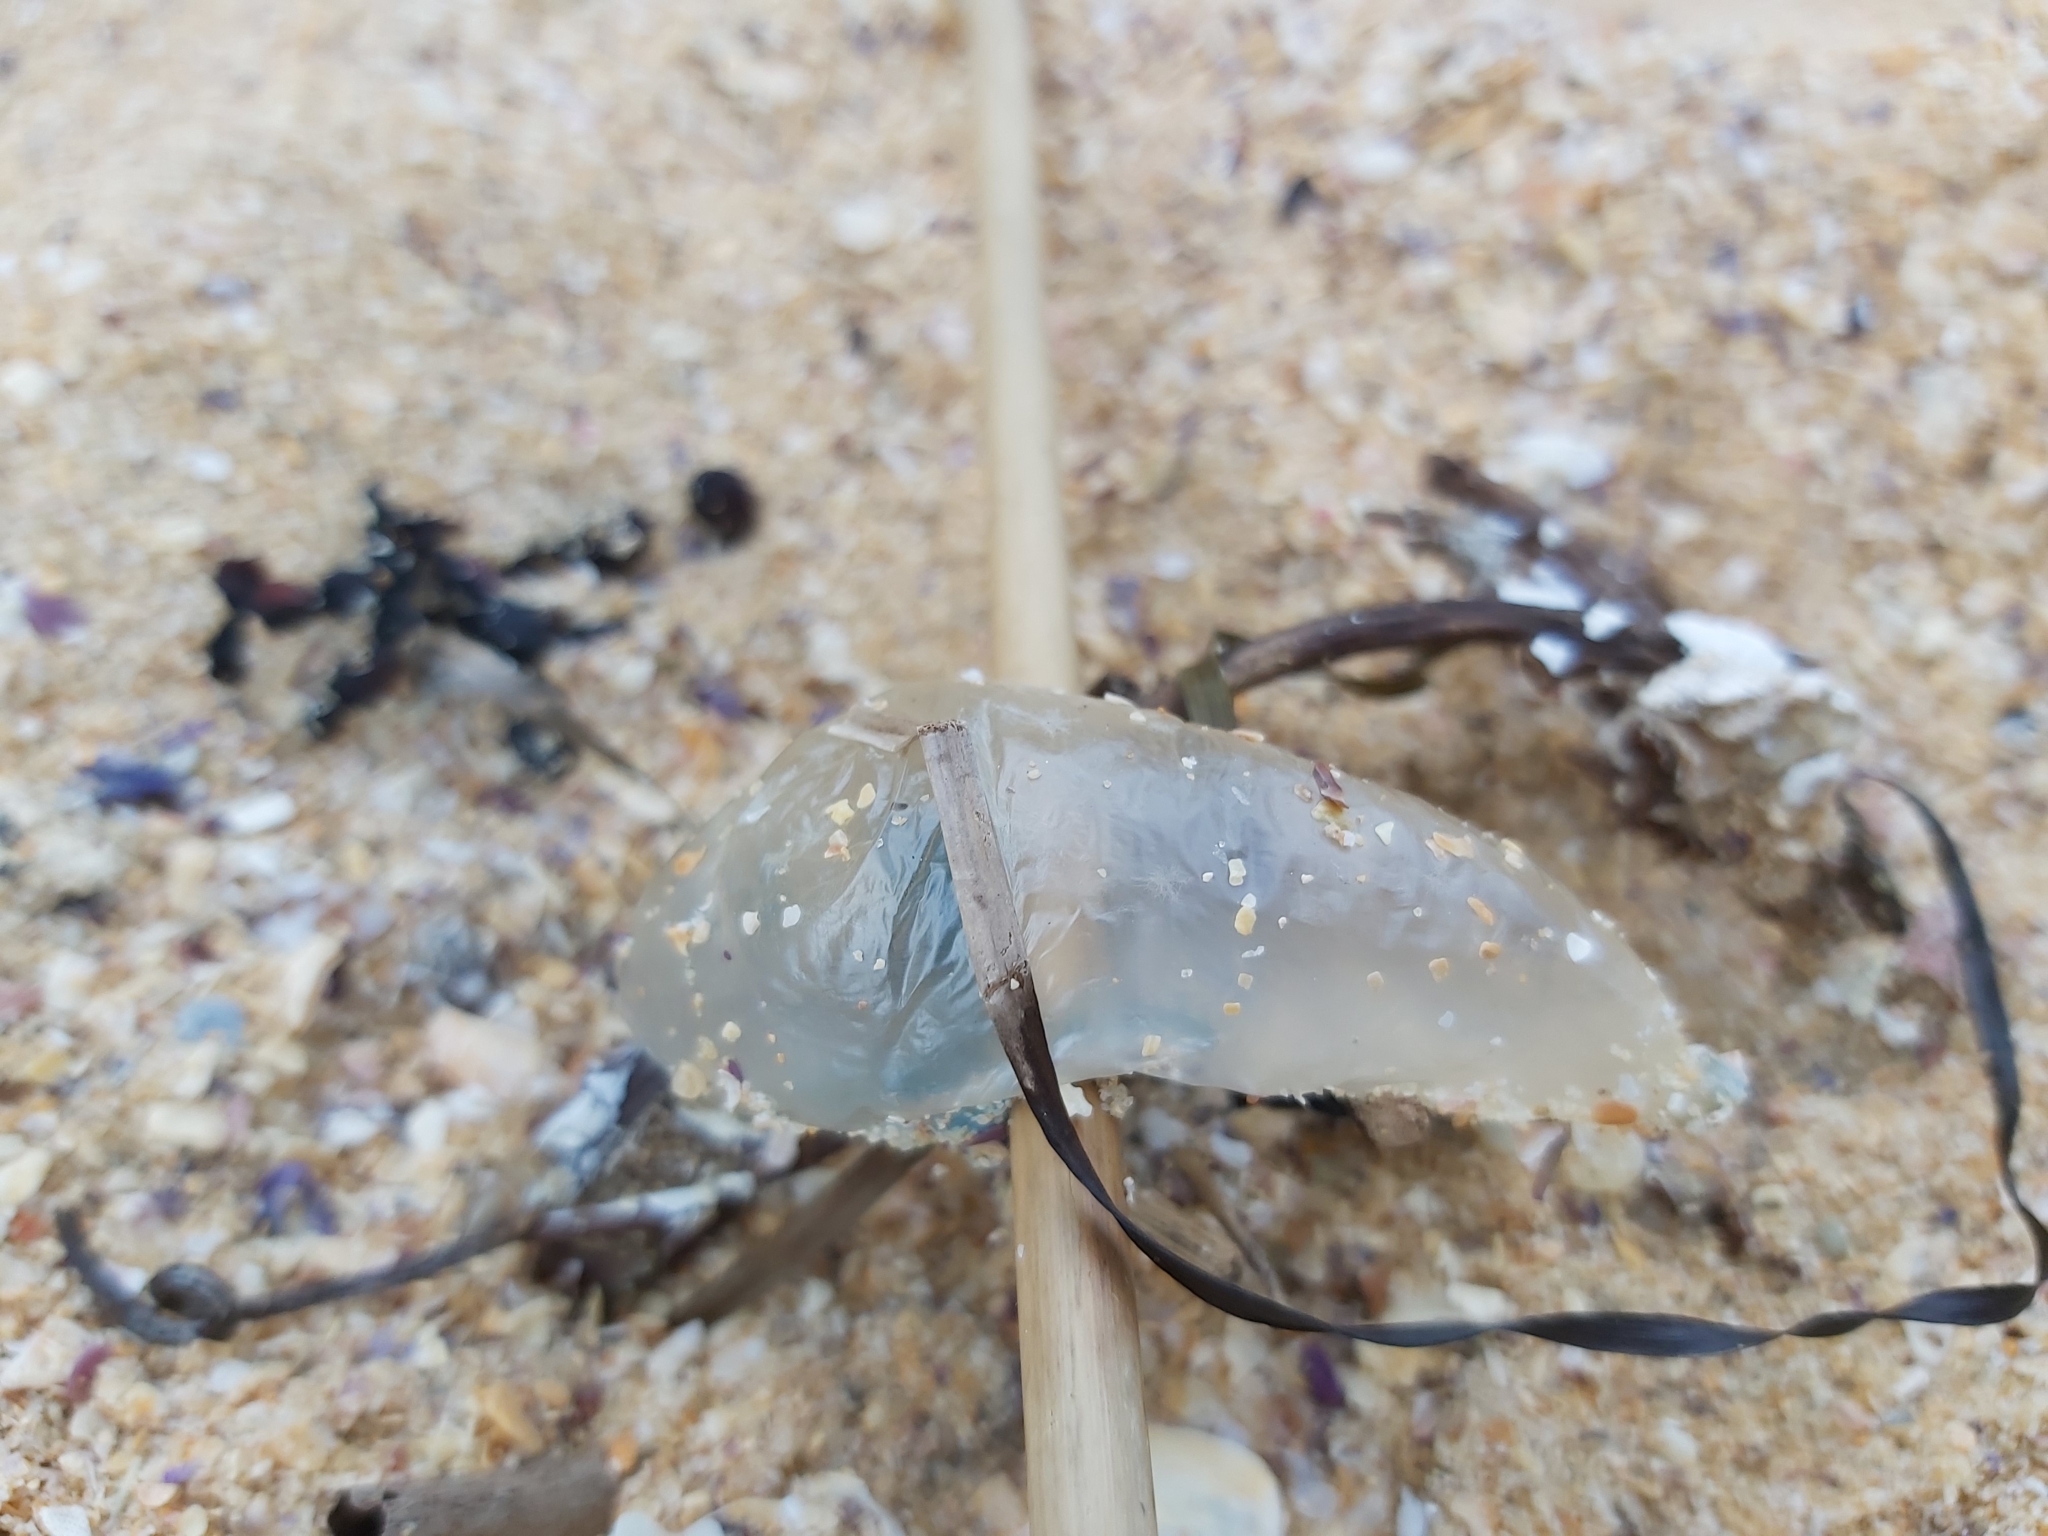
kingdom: Animalia
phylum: Cnidaria
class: Hydrozoa
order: Siphonophorae
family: Physaliidae
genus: Physalia
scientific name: Physalia physalis
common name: Portuguese man-of-war
